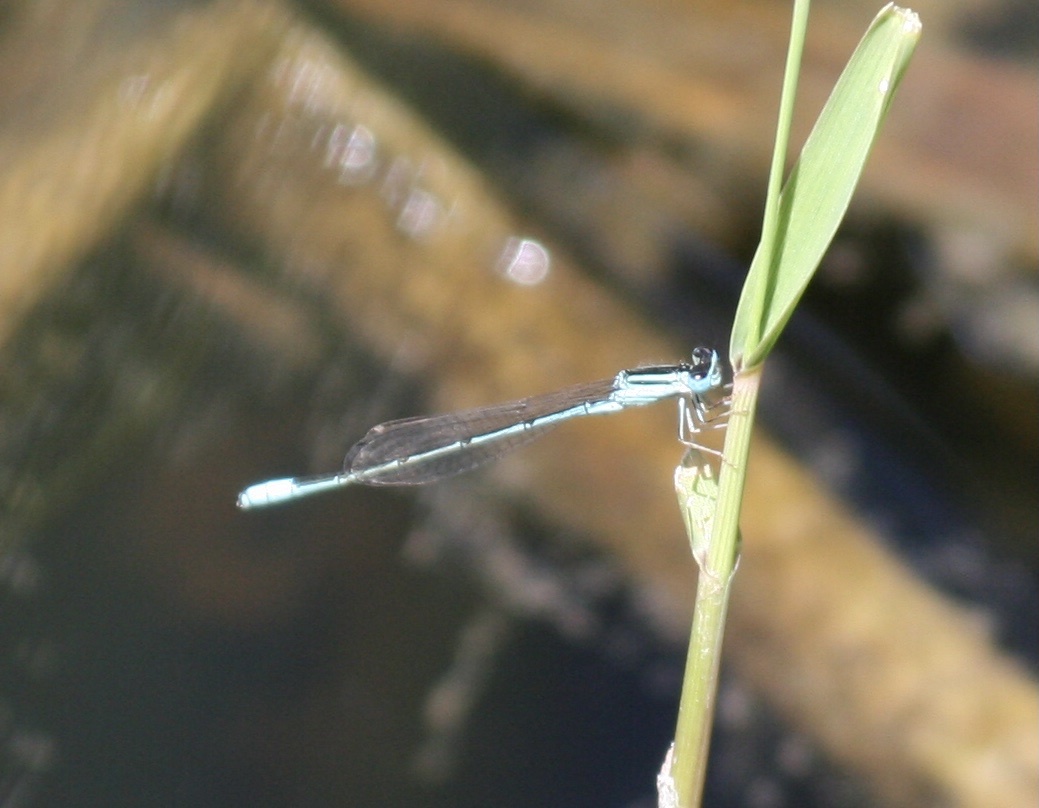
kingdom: Animalia
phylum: Arthropoda
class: Insecta
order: Odonata
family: Coenagrionidae
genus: Africallagma
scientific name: Africallagma glaucum
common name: Swamp bluet
